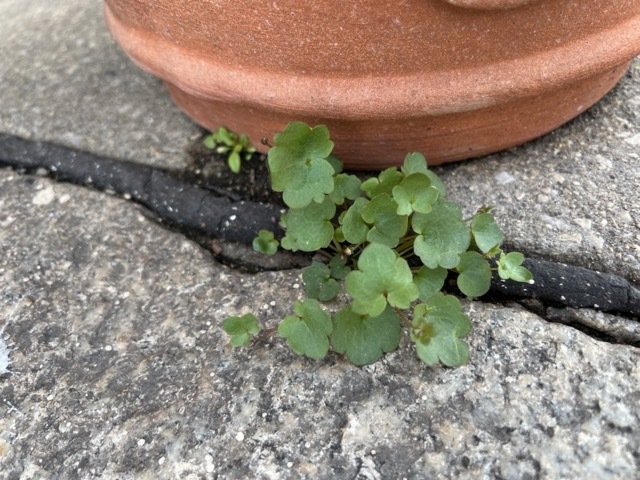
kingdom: Plantae
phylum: Tracheophyta
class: Magnoliopsida
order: Lamiales
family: Plantaginaceae
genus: Cymbalaria
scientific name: Cymbalaria muralis
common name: Ivy-leaved toadflax
